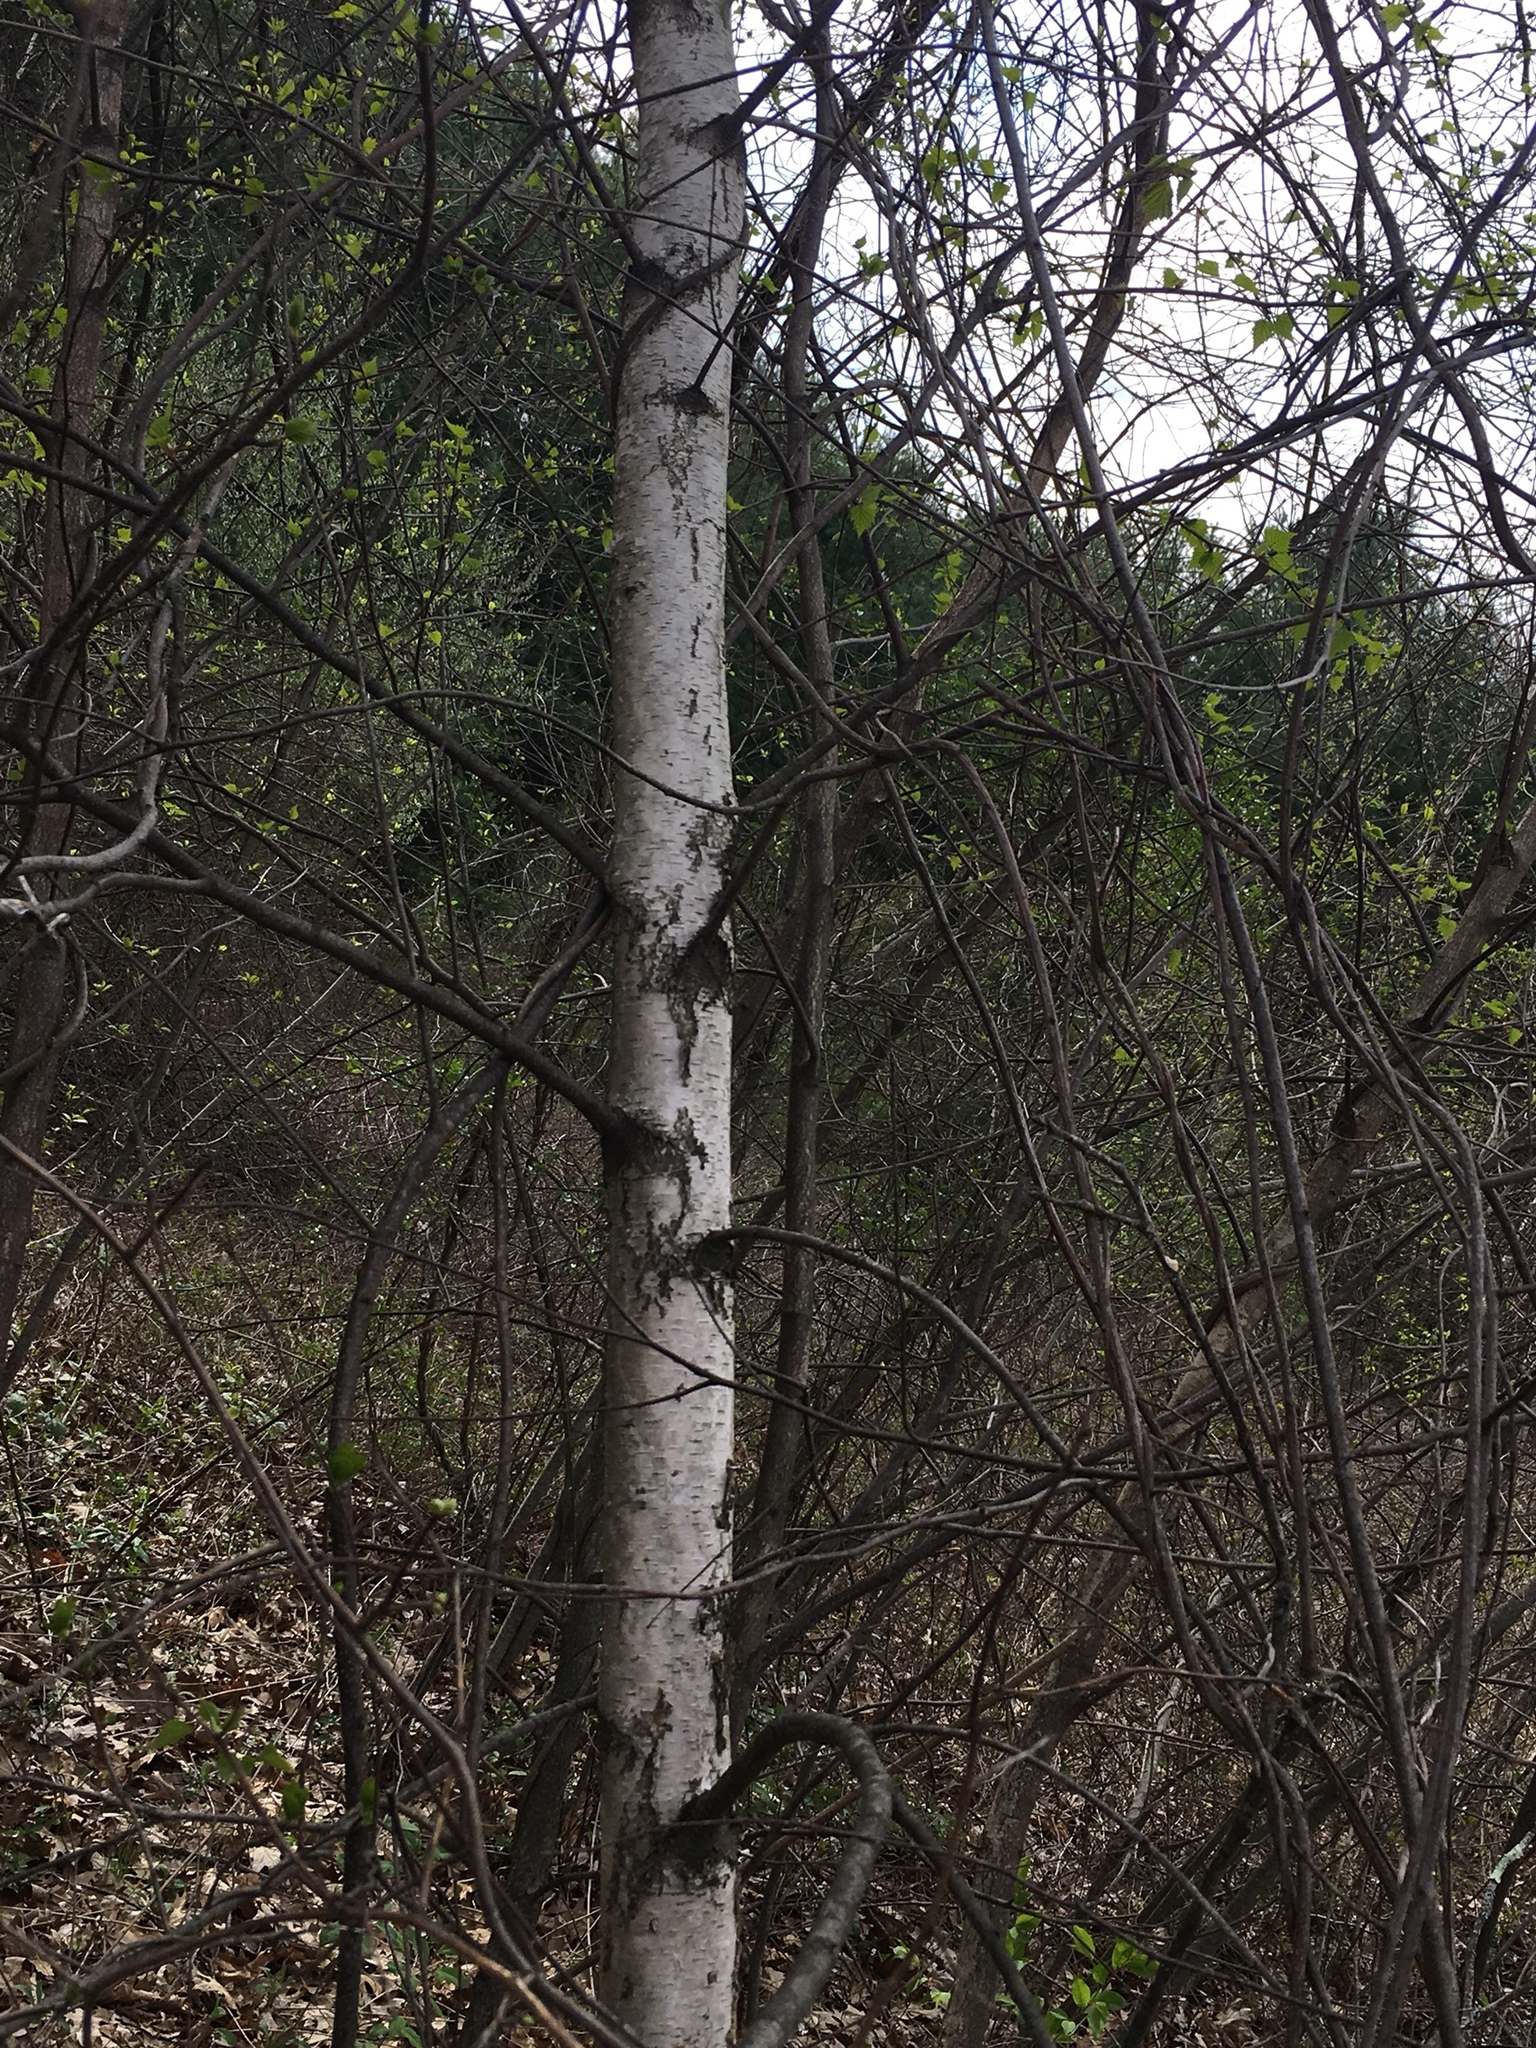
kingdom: Plantae
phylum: Tracheophyta
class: Magnoliopsida
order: Fagales
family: Betulaceae
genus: Betula
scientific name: Betula populifolia
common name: Fire birch
